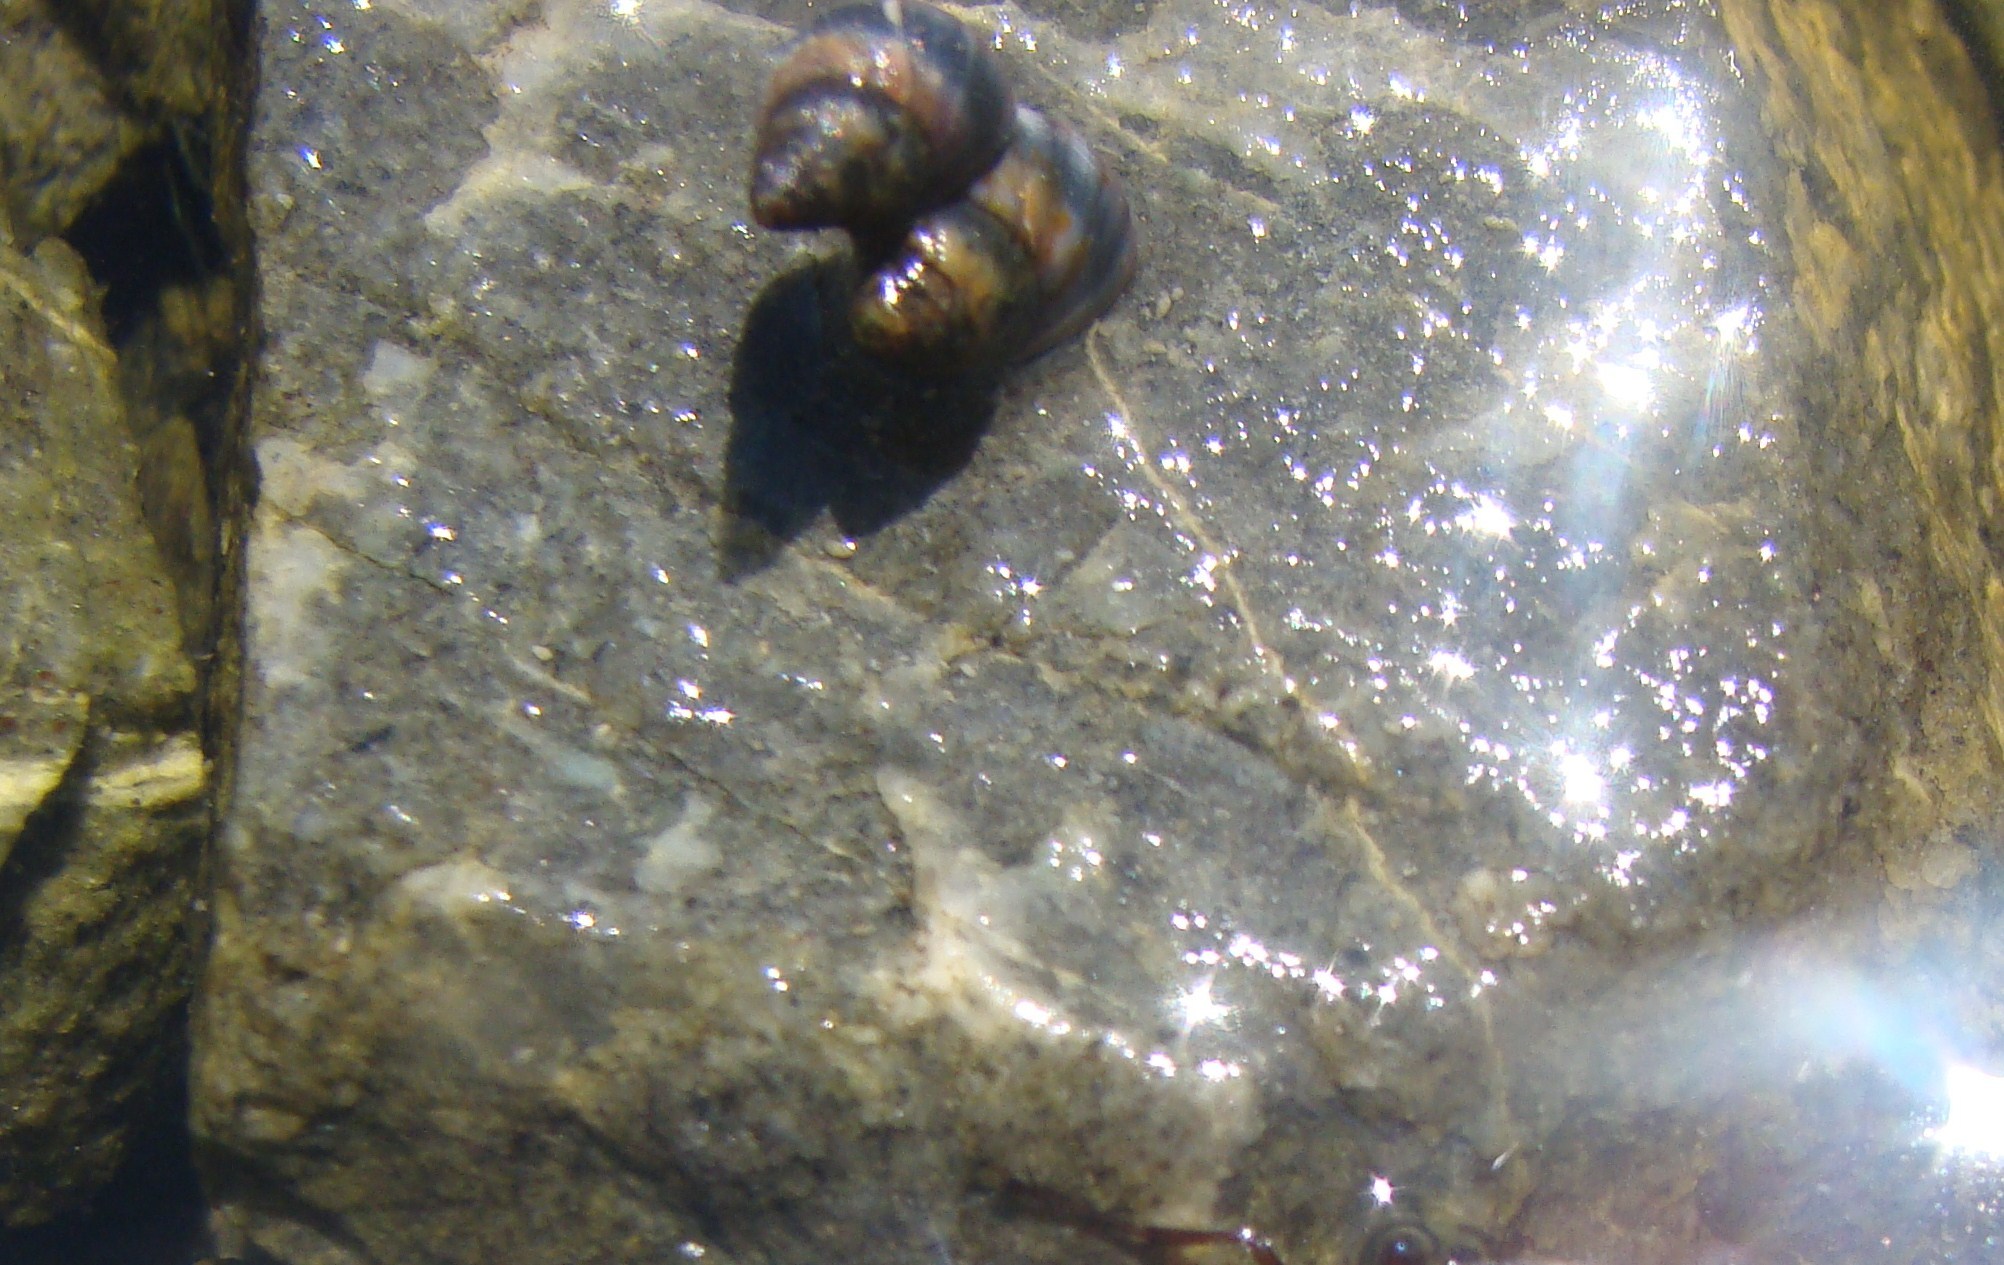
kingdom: Animalia
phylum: Mollusca
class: Gastropoda
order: Littorinimorpha
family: Littorinidae
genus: Austrolittorina
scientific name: Austrolittorina antipodum
